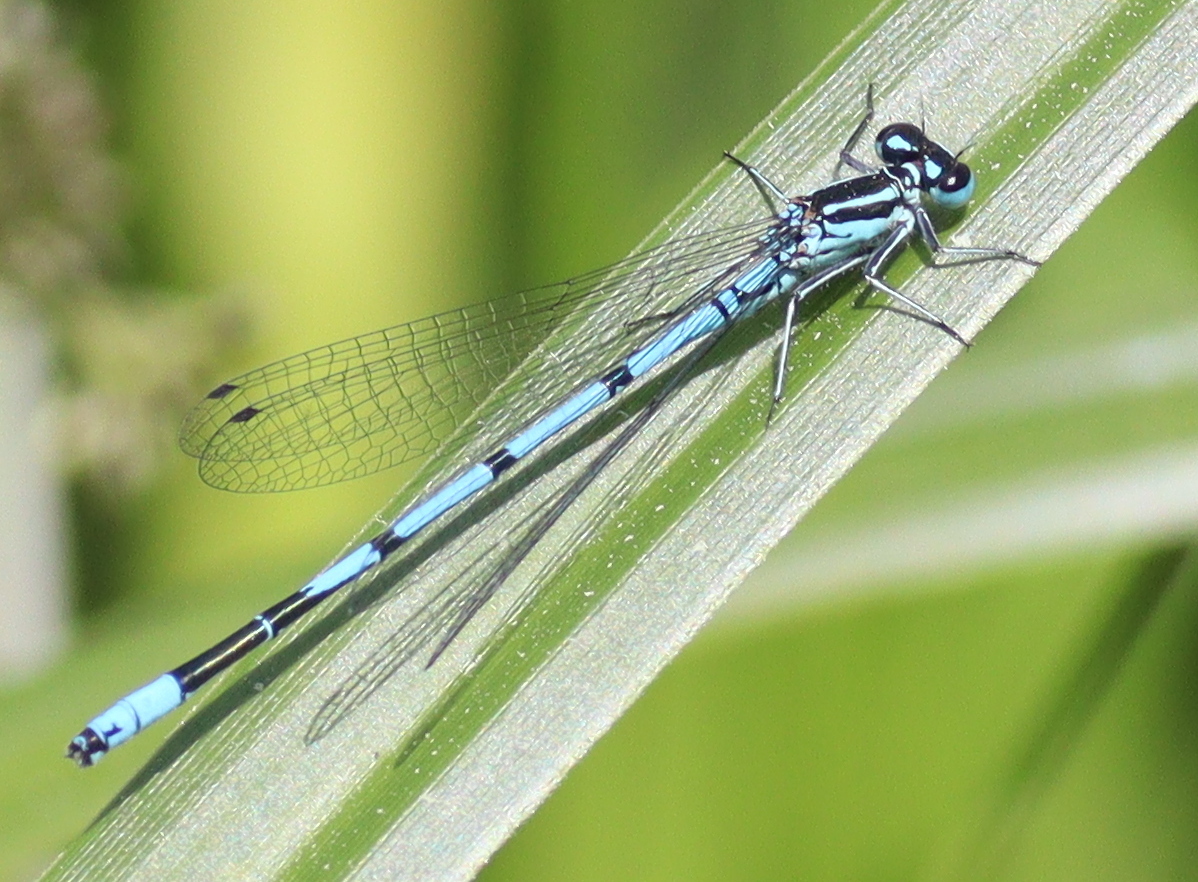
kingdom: Animalia
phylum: Arthropoda
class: Insecta
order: Odonata
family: Coenagrionidae
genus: Coenagrion
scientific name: Coenagrion puella
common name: Azure damselfly
